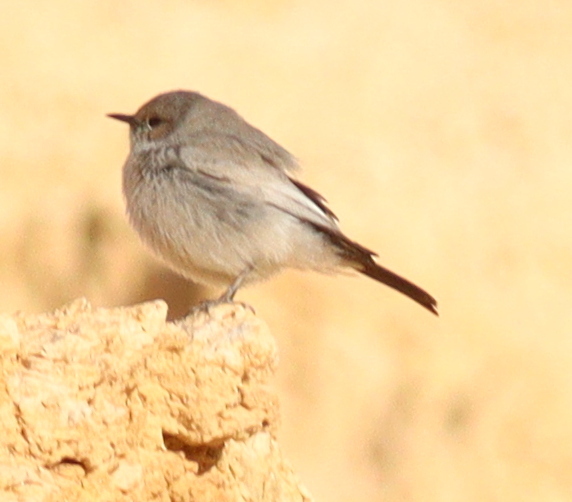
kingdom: Animalia
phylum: Chordata
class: Aves
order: Passeriformes
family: Muscicapidae
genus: Oenanthe
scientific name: Oenanthe melanura
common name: Blackstart
